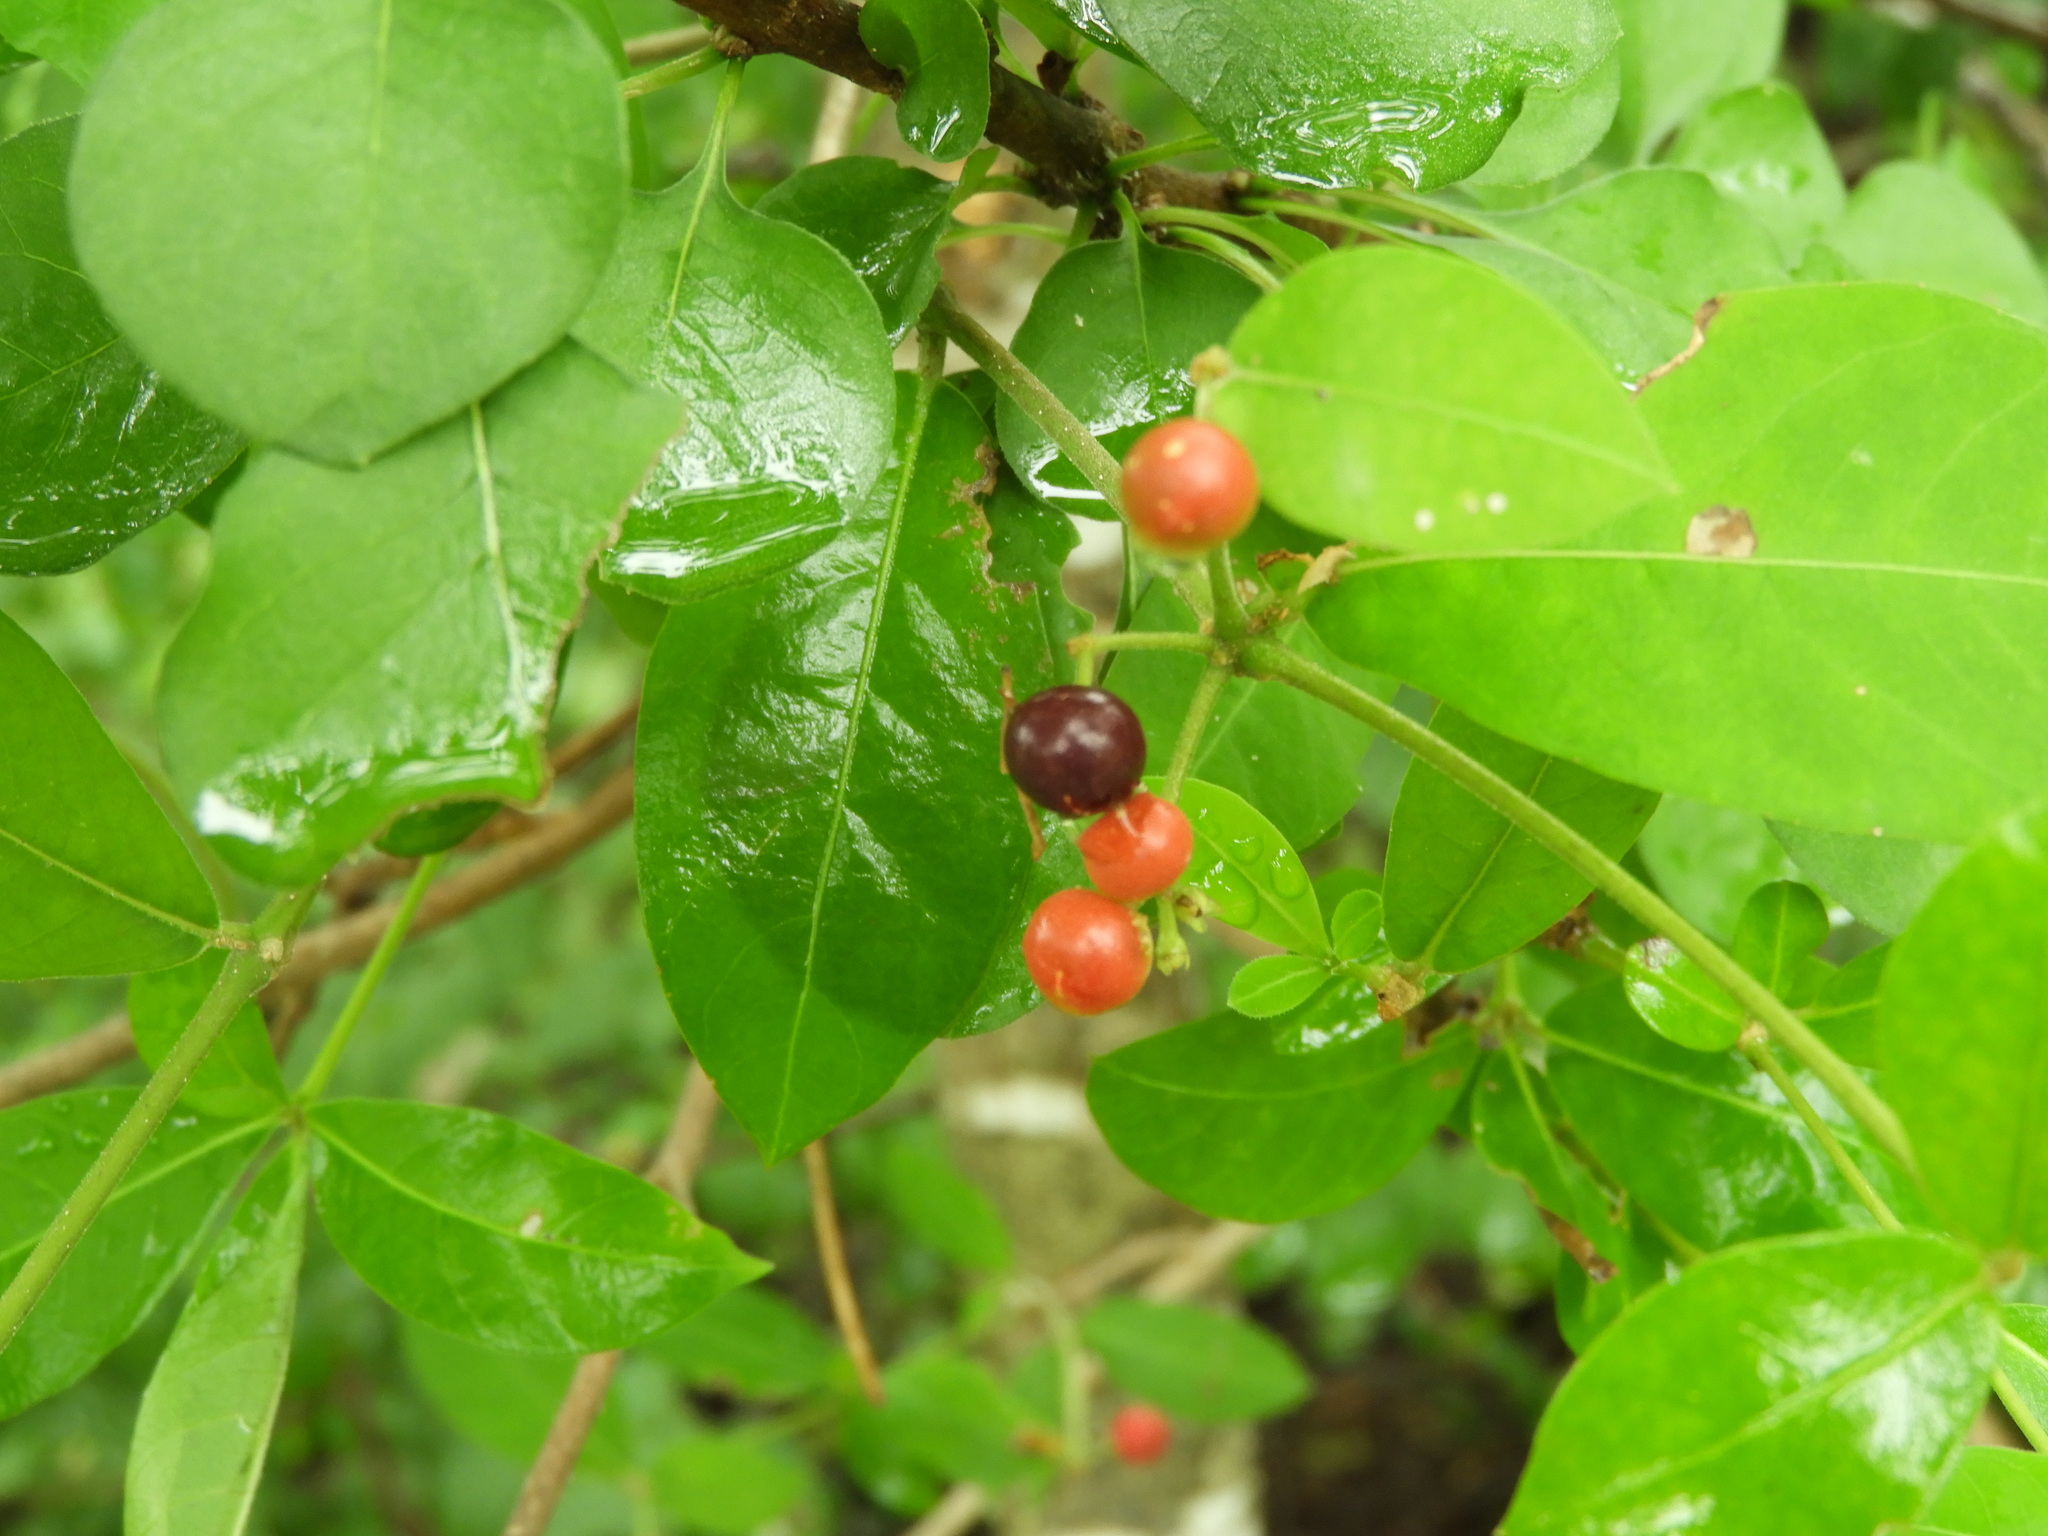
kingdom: Plantae
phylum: Tracheophyta
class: Magnoliopsida
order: Gentianales
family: Apocynaceae
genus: Rauvolfia
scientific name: Rauvolfia tetraphylla
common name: Four-leaf devil-pepper
